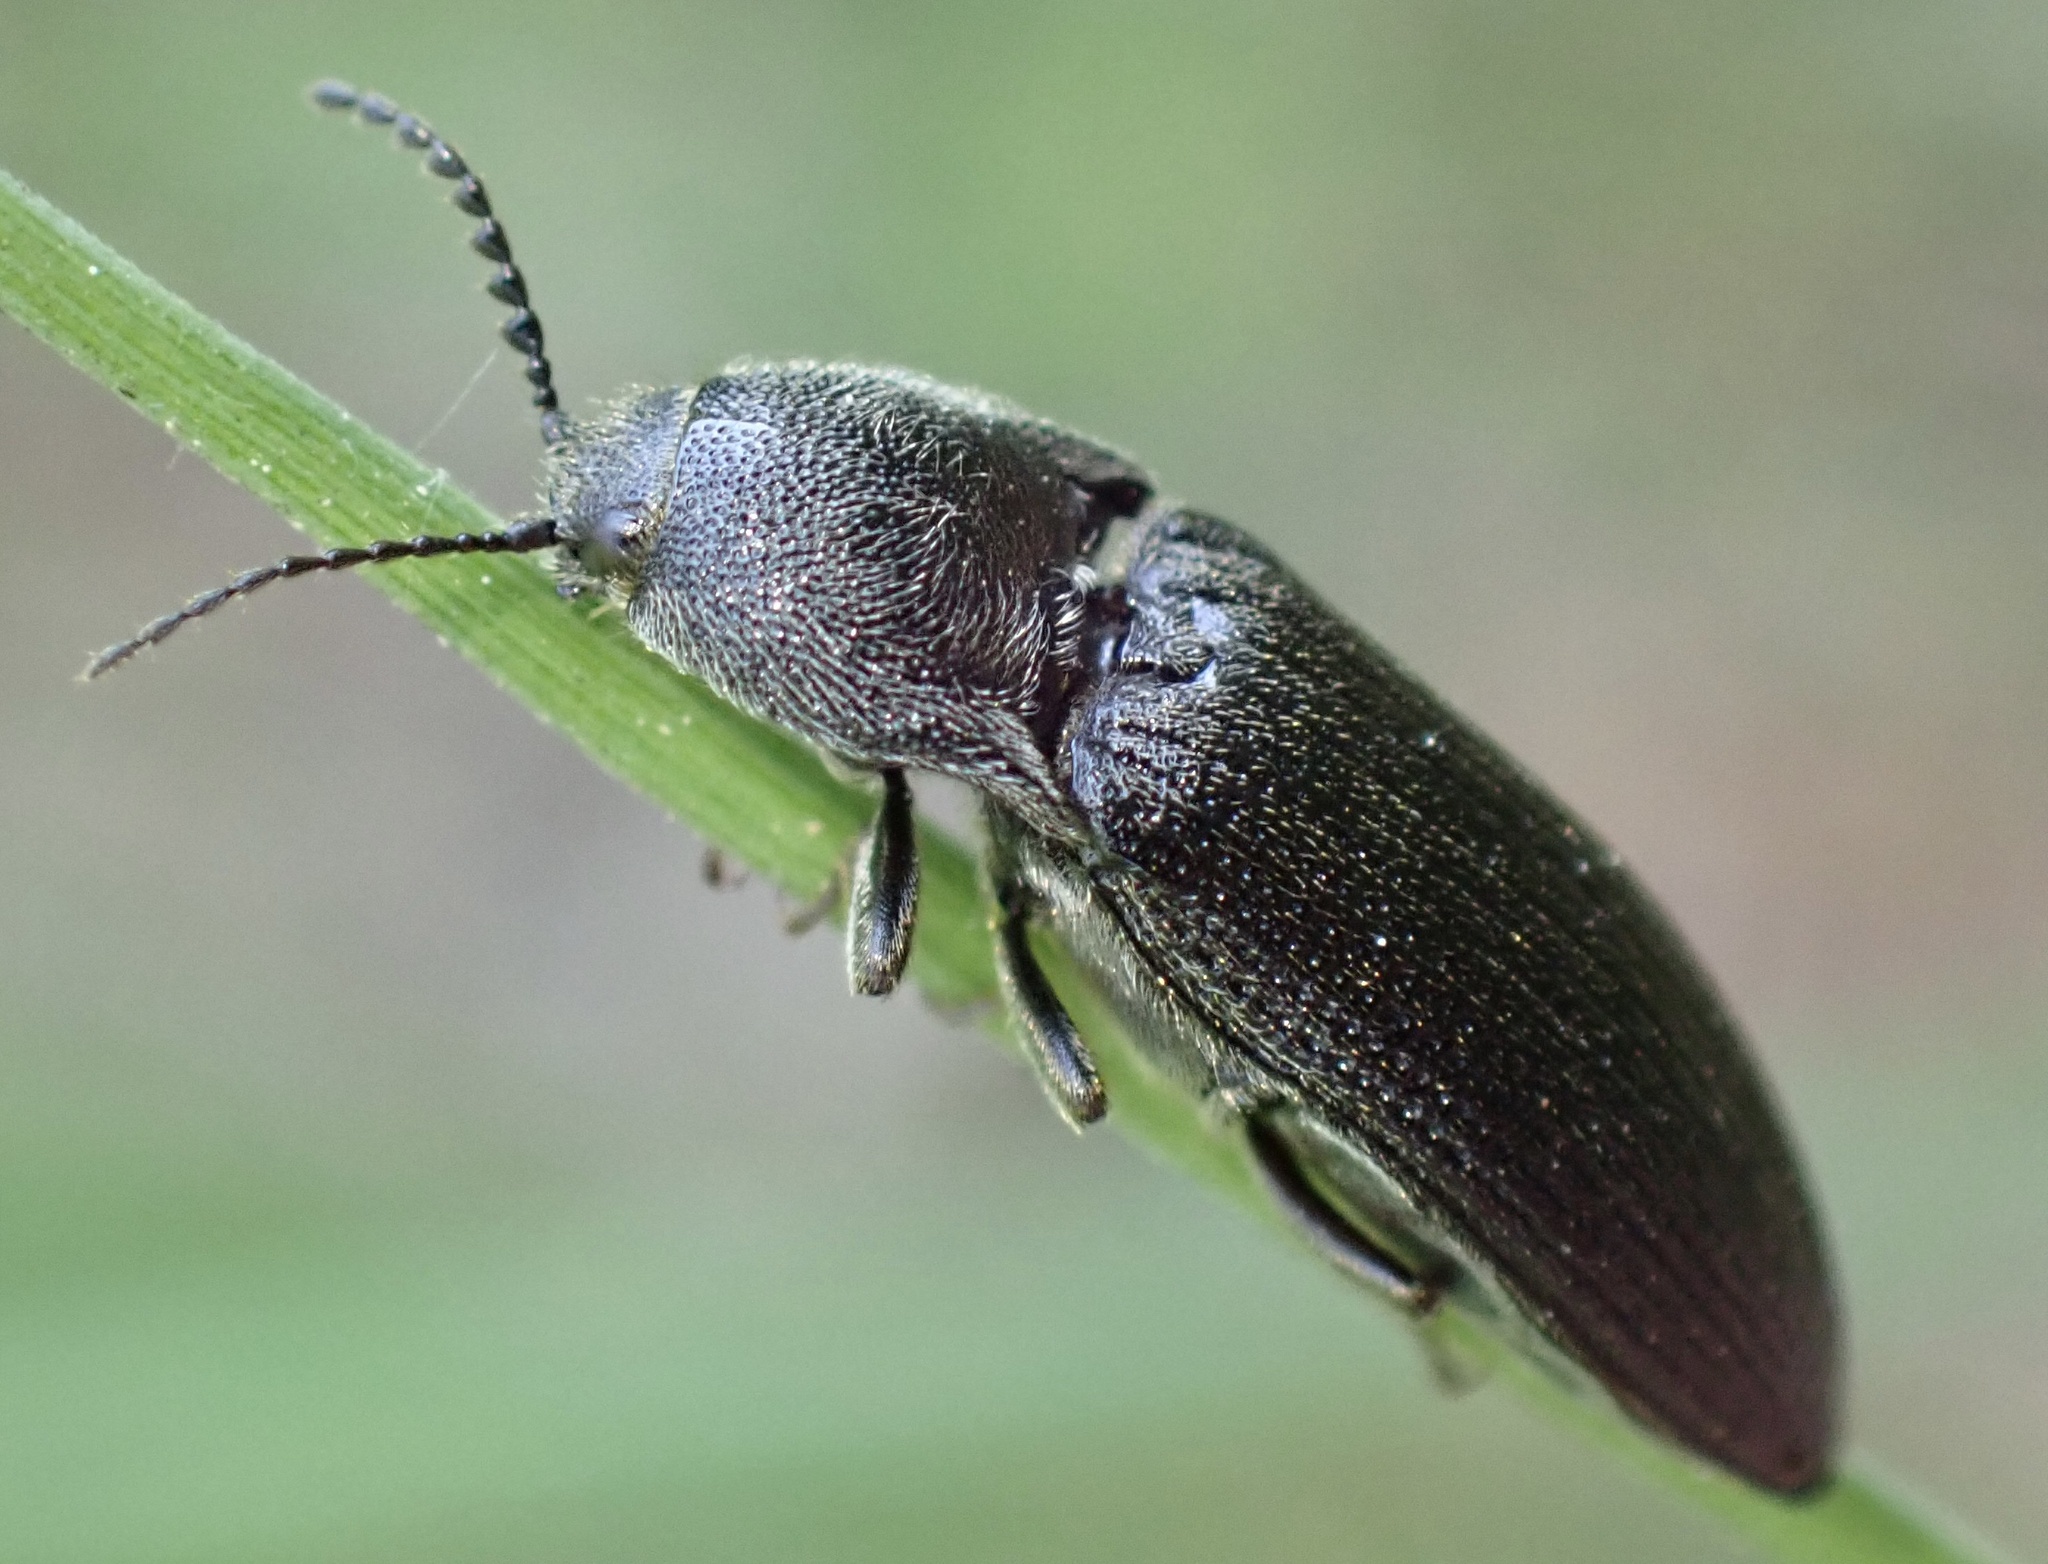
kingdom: Animalia
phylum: Arthropoda
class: Insecta
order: Coleoptera
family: Elateridae
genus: Melanotus
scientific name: Melanotus punctolineatus
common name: Sandwich click beetle
